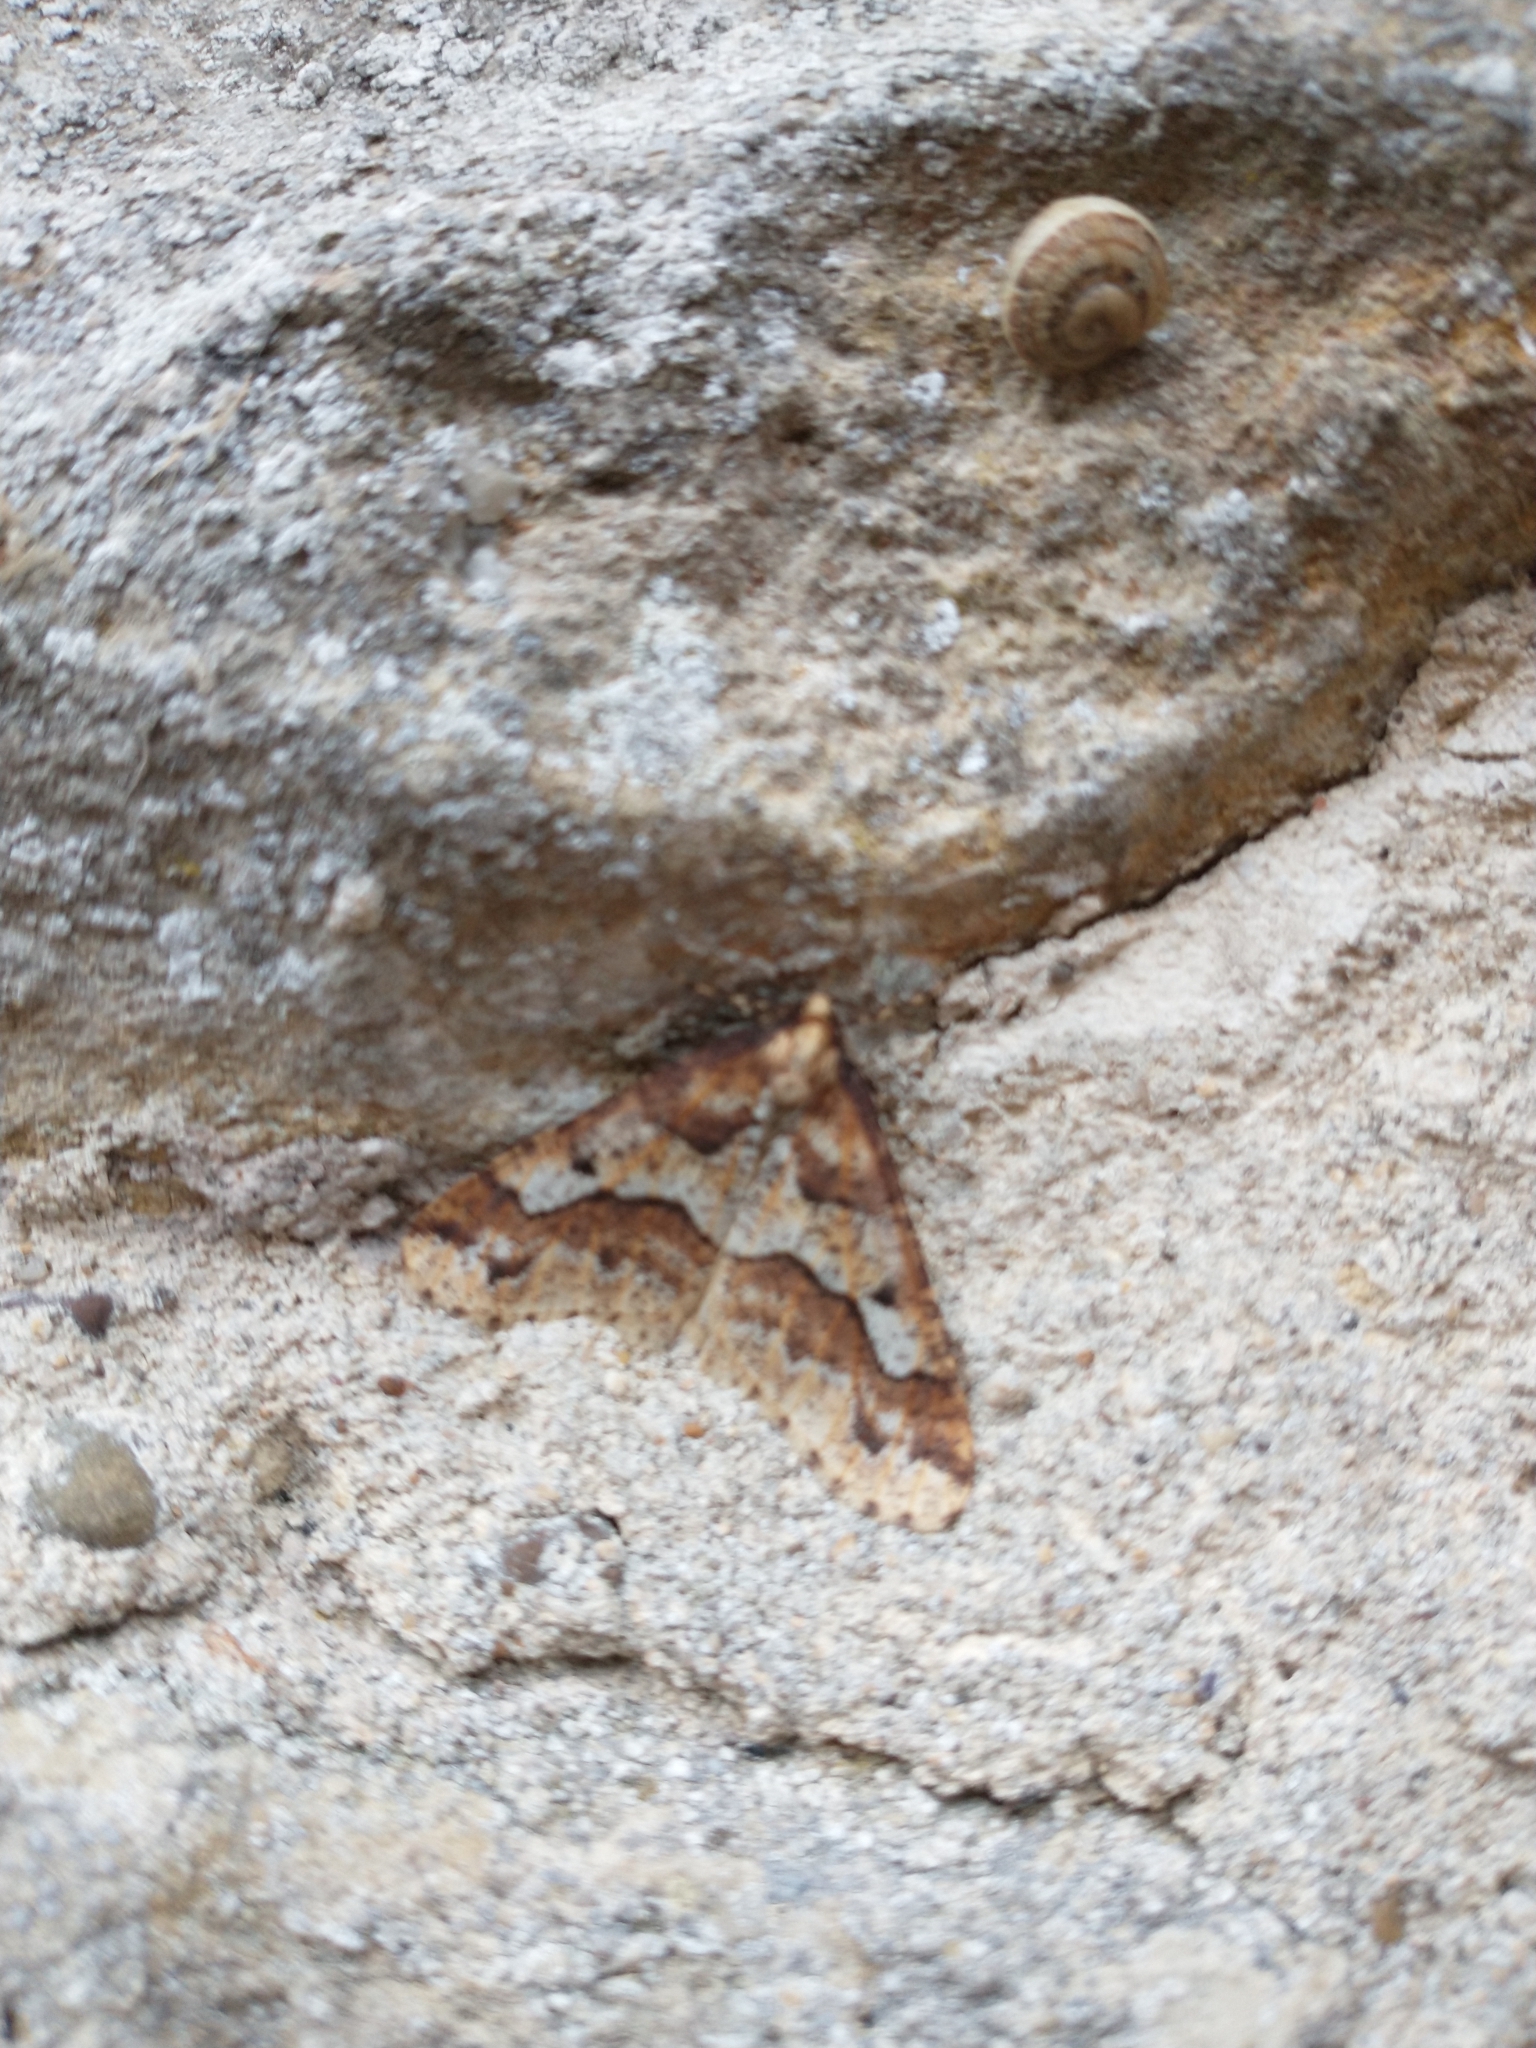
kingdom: Animalia
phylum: Arthropoda
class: Insecta
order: Lepidoptera
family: Geometridae
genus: Erannis
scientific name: Erannis defoliaria
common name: Mottled umber
